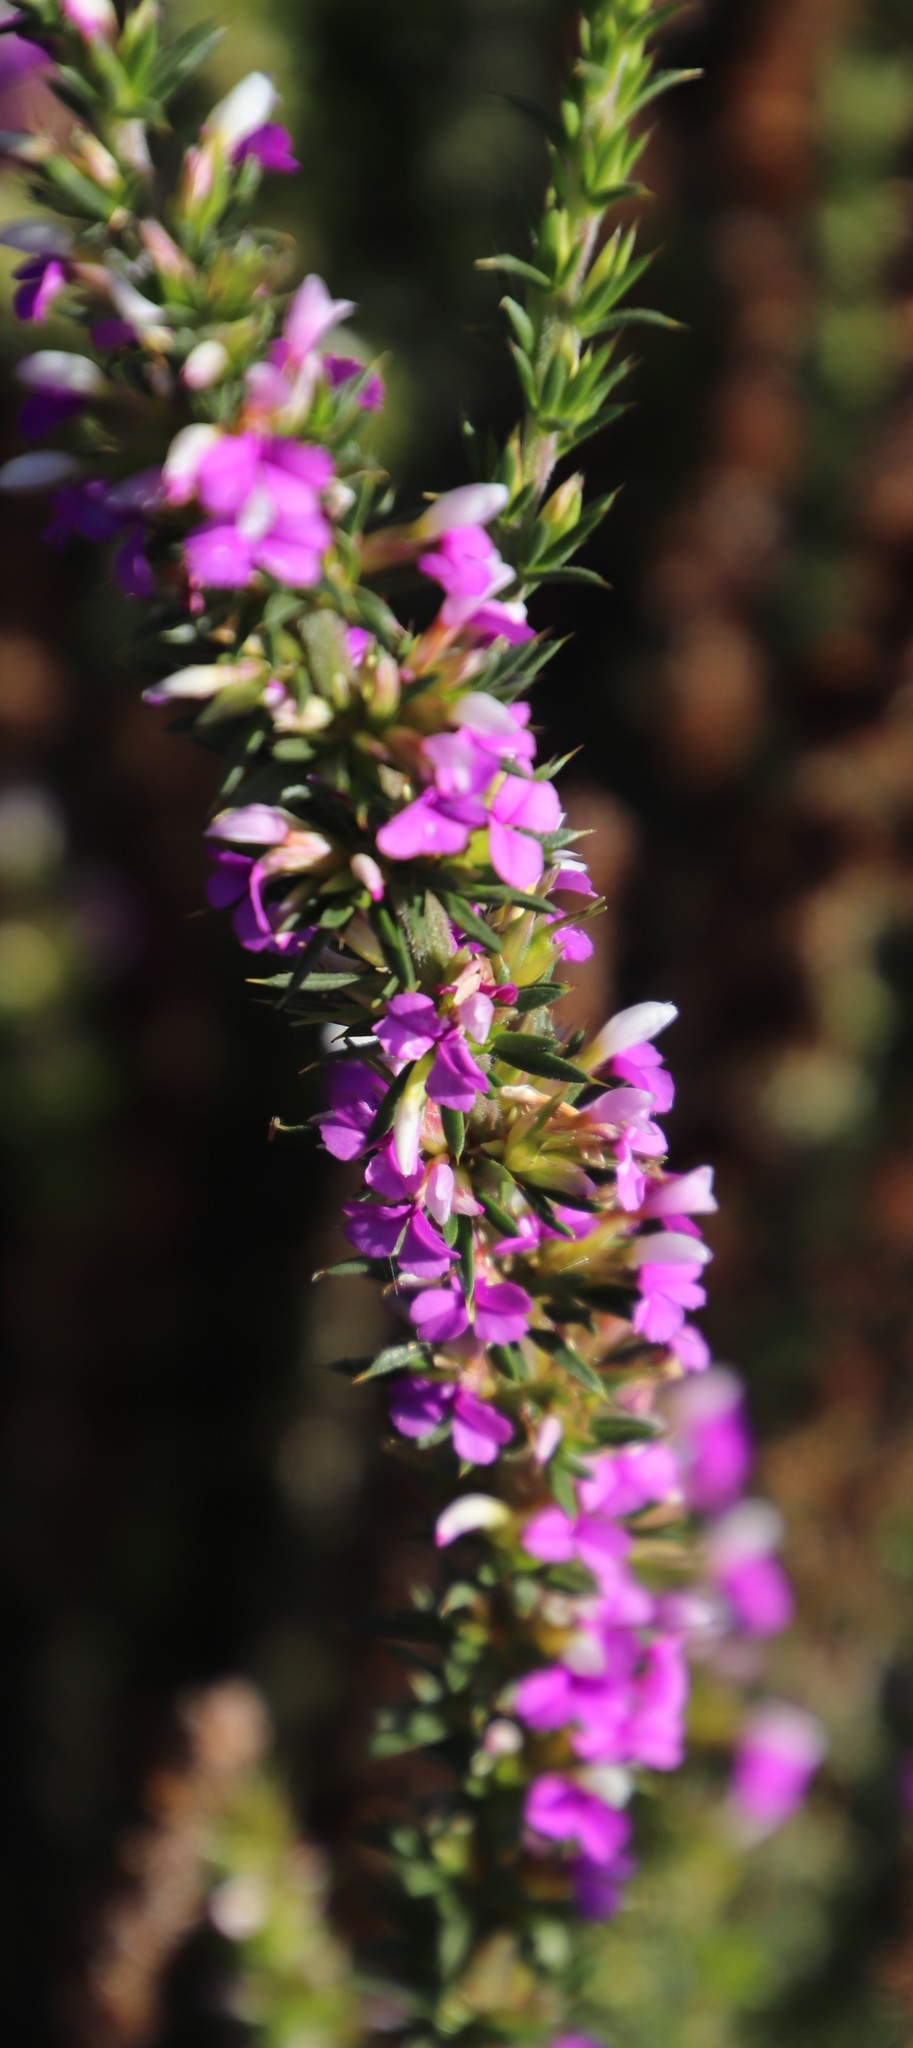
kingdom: Plantae
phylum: Tracheophyta
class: Magnoliopsida
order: Fabales
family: Polygalaceae
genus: Muraltia
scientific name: Muraltia heisteria
